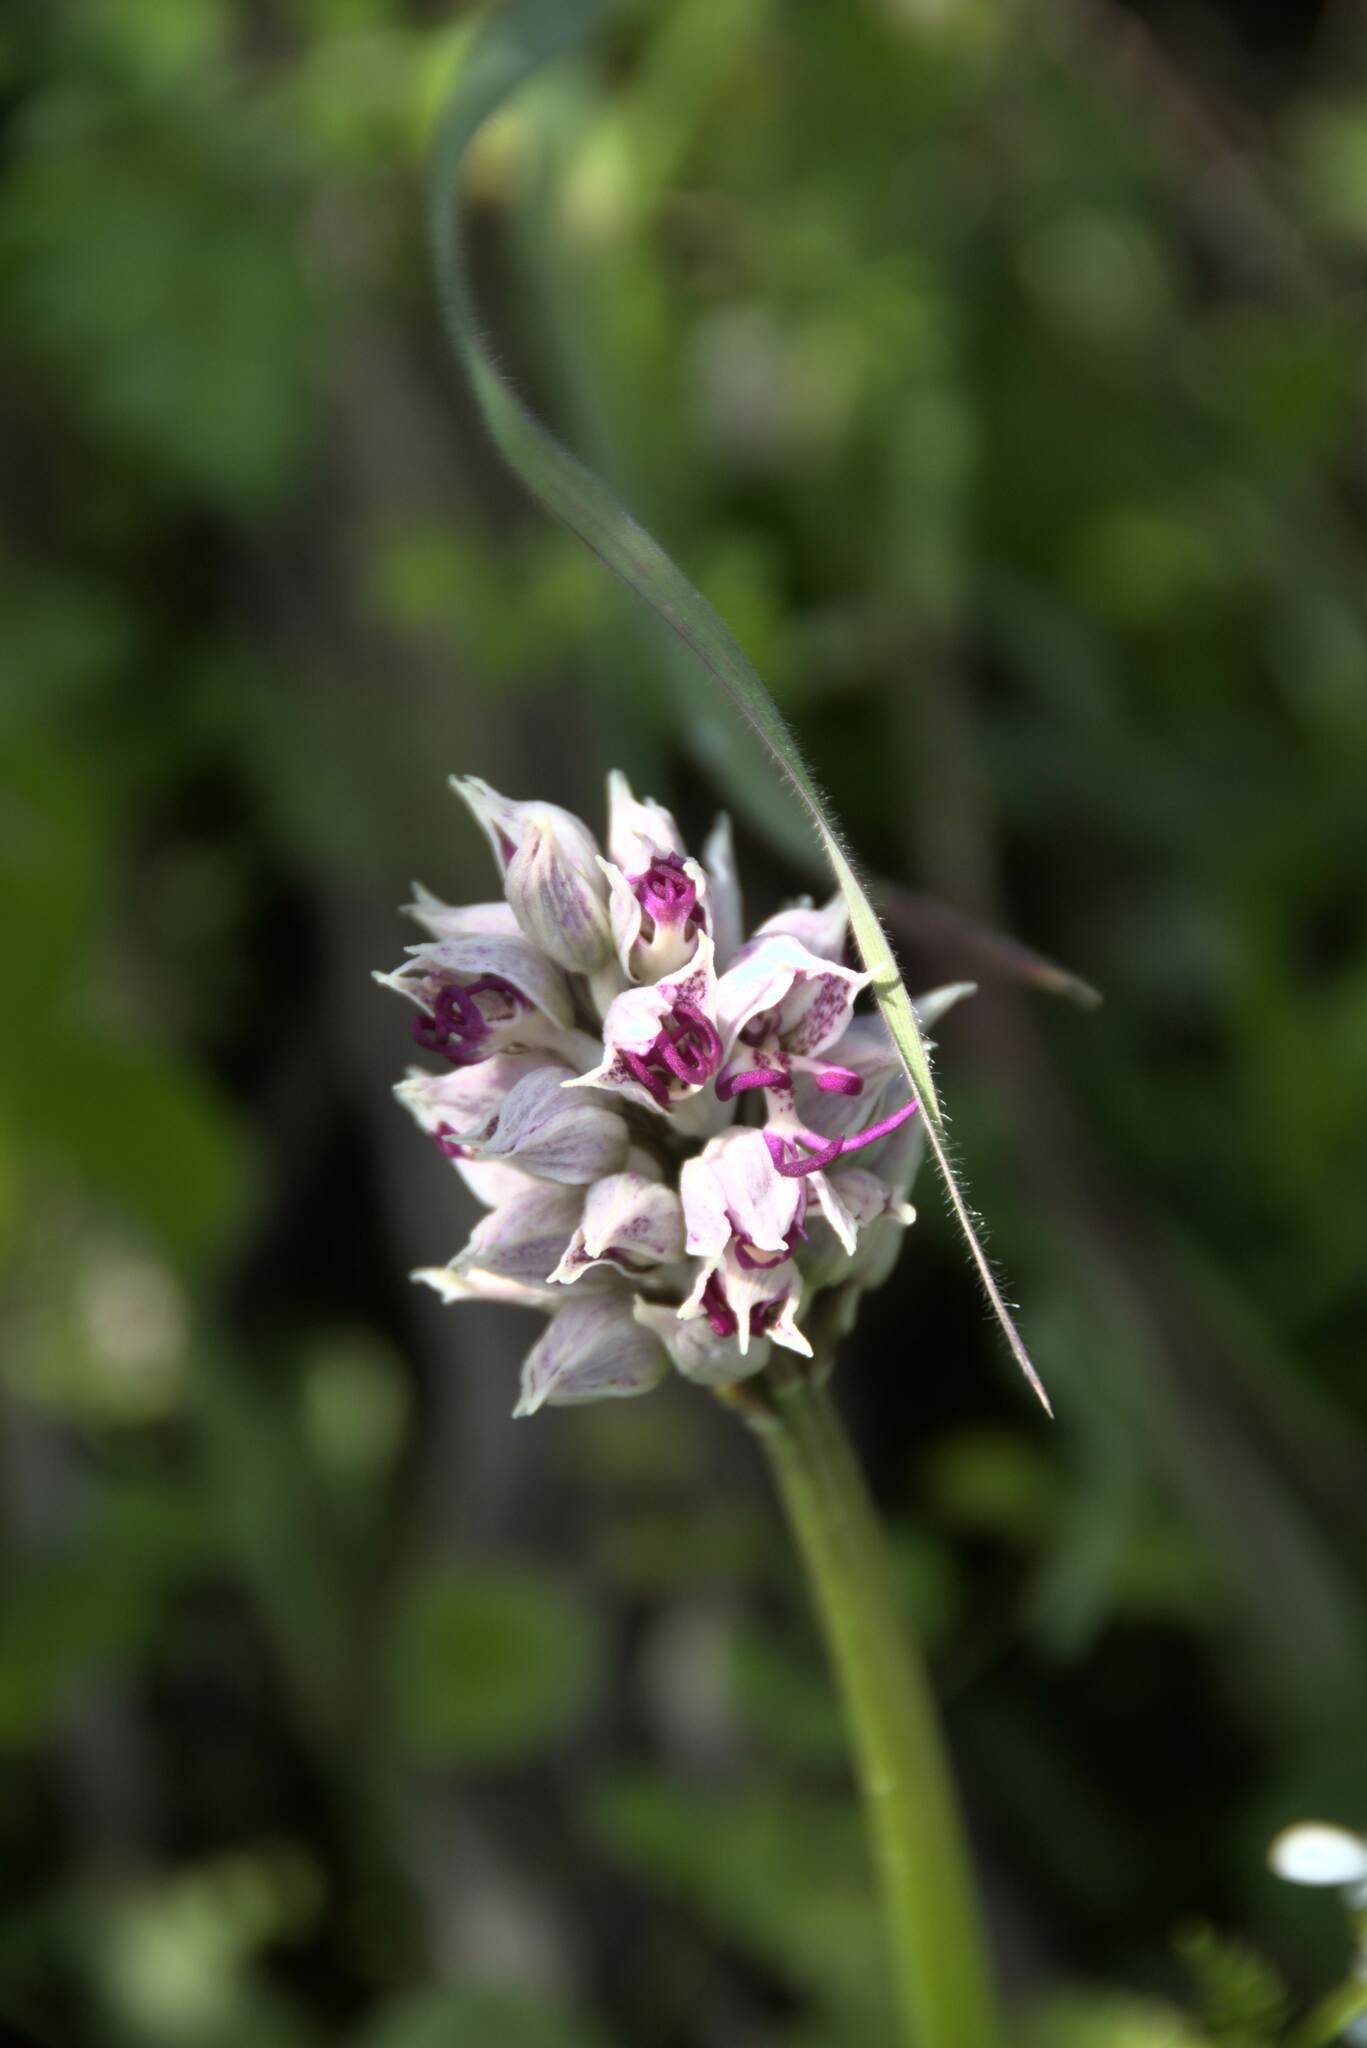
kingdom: Plantae
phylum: Tracheophyta
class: Liliopsida
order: Asparagales
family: Orchidaceae
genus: Orchis
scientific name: Orchis simia
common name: Monkey orchid
